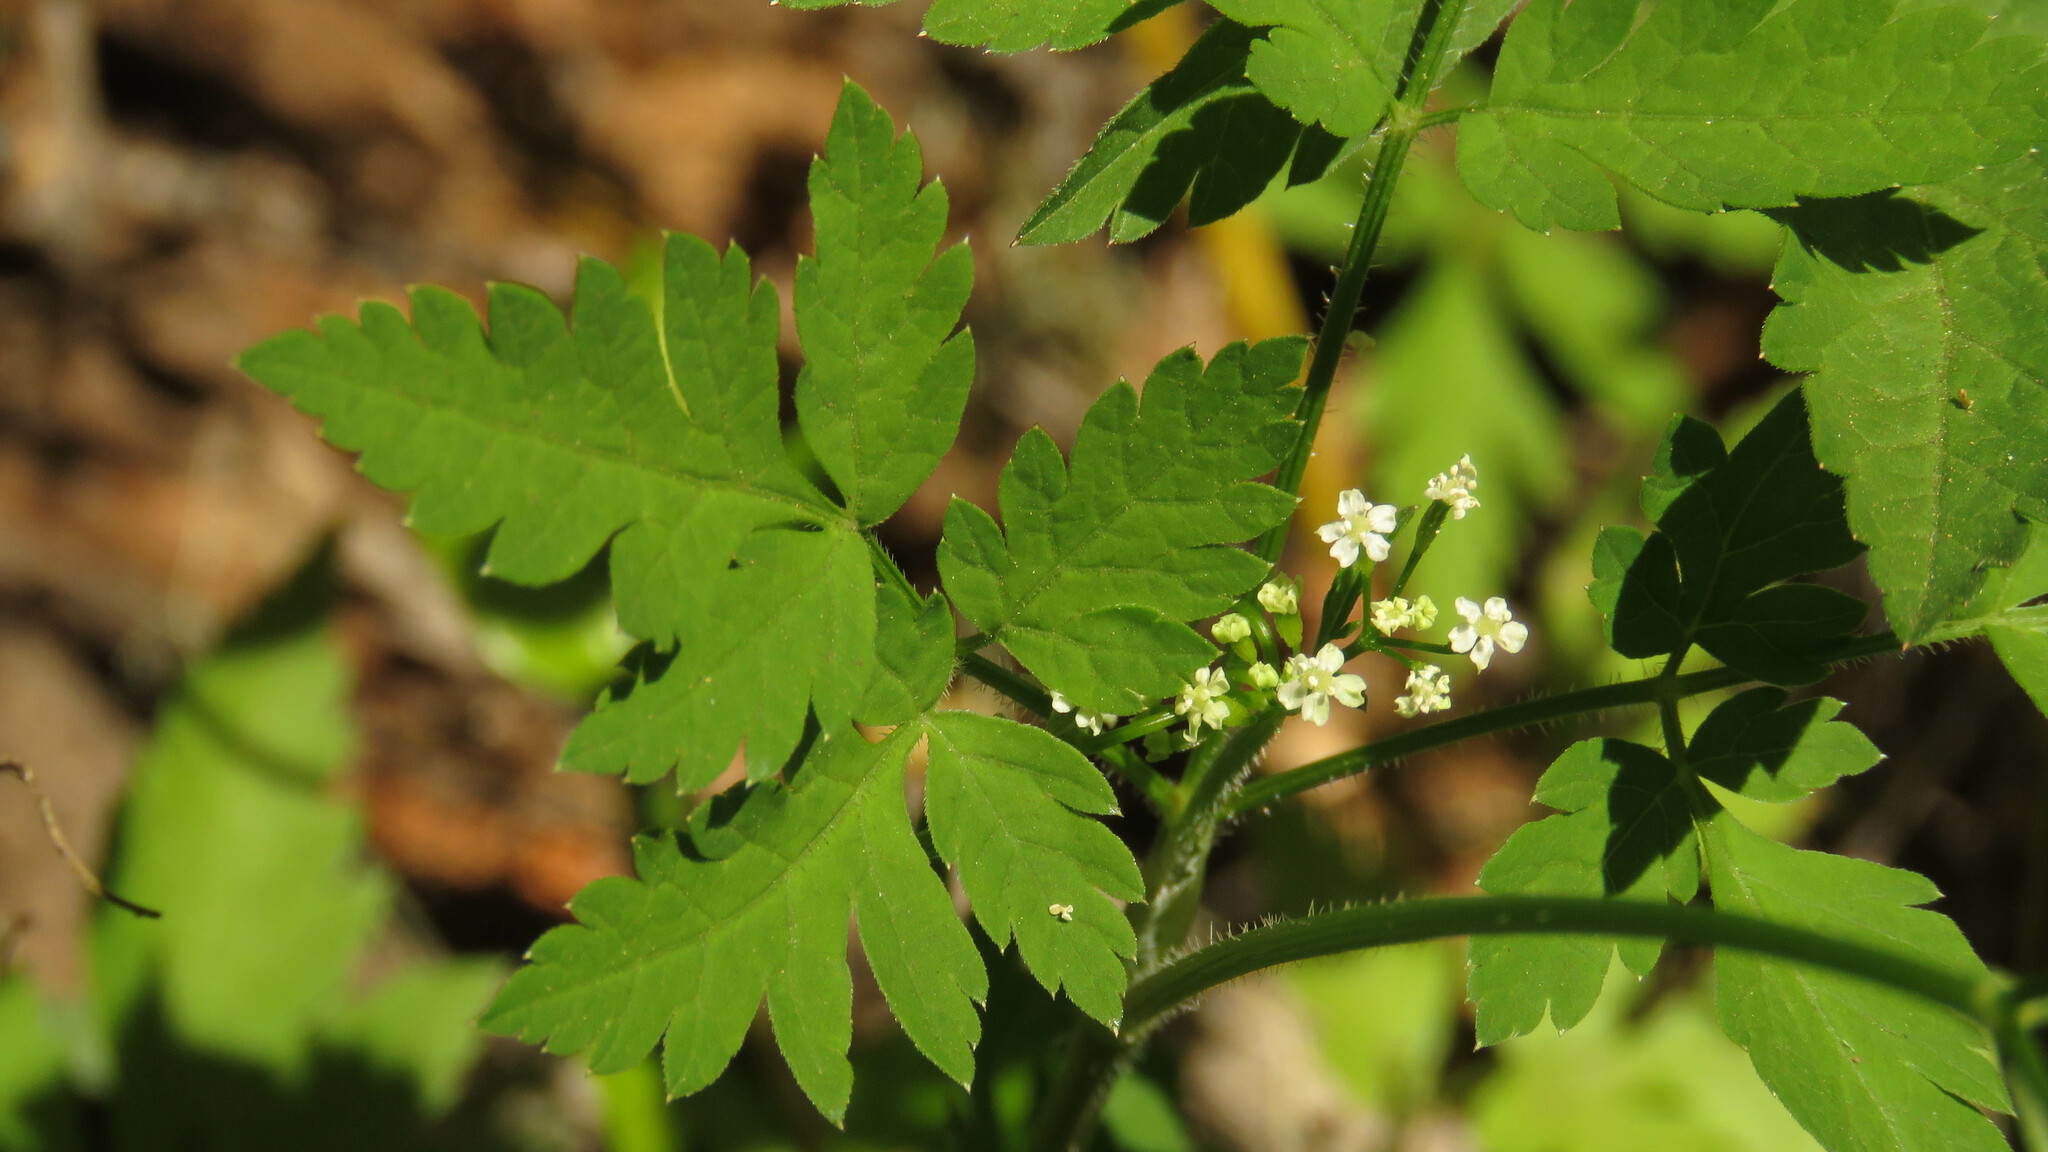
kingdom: Plantae
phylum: Tracheophyta
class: Magnoliopsida
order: Apiales
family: Apiaceae
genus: Osmorhiza
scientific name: Osmorhiza berteroi
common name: Mountain sweet cicely
